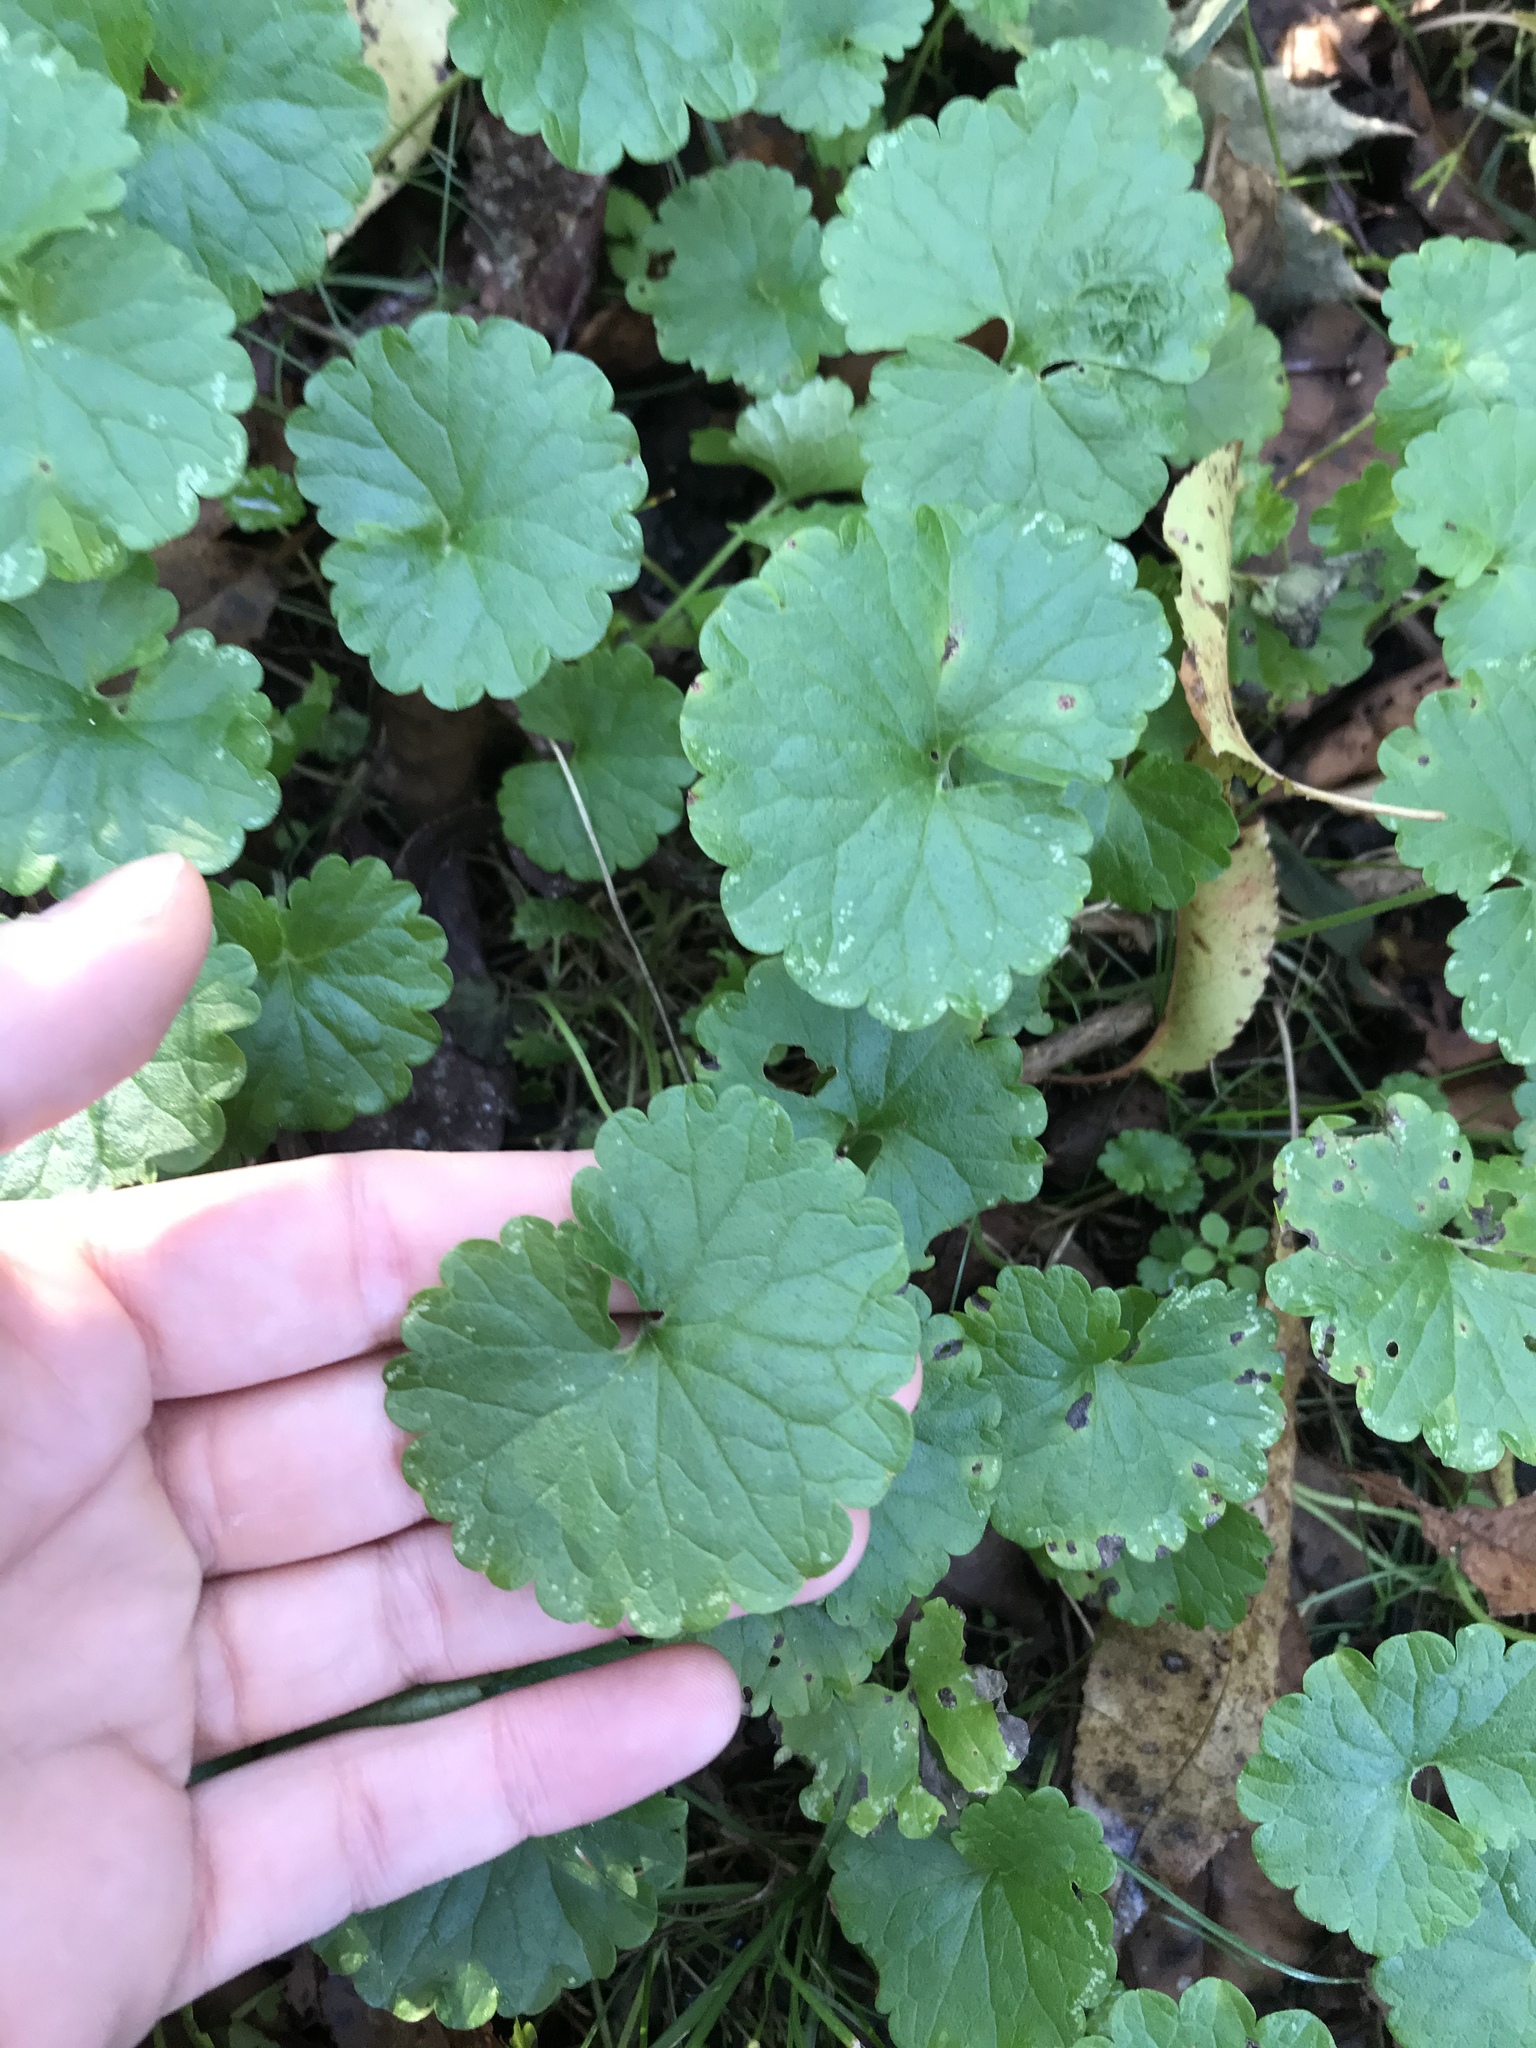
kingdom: Plantae
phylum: Tracheophyta
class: Magnoliopsida
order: Lamiales
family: Lamiaceae
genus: Glechoma
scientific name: Glechoma hederacea
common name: Ground ivy
